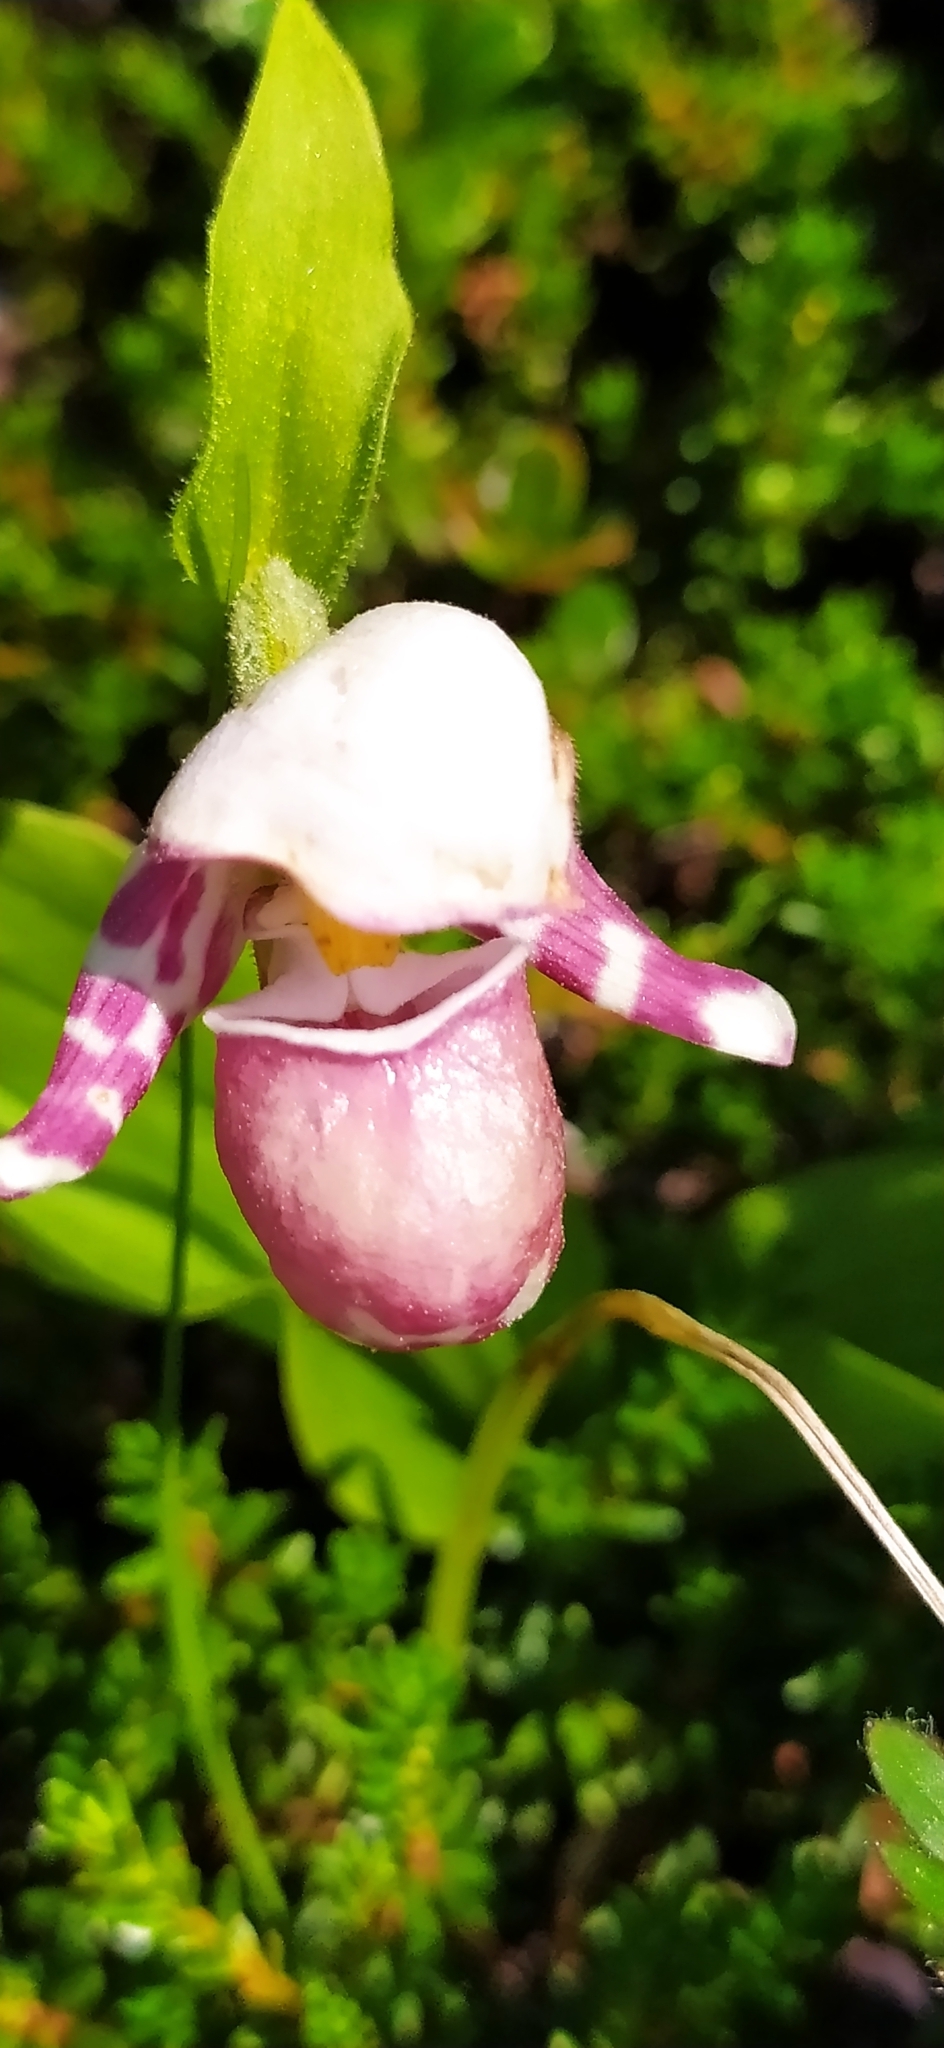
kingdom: Plantae
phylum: Tracheophyta
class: Liliopsida
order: Asparagales
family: Orchidaceae
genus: Cypripedium
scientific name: Cypripedium guttatum
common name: Pink lady slipper
